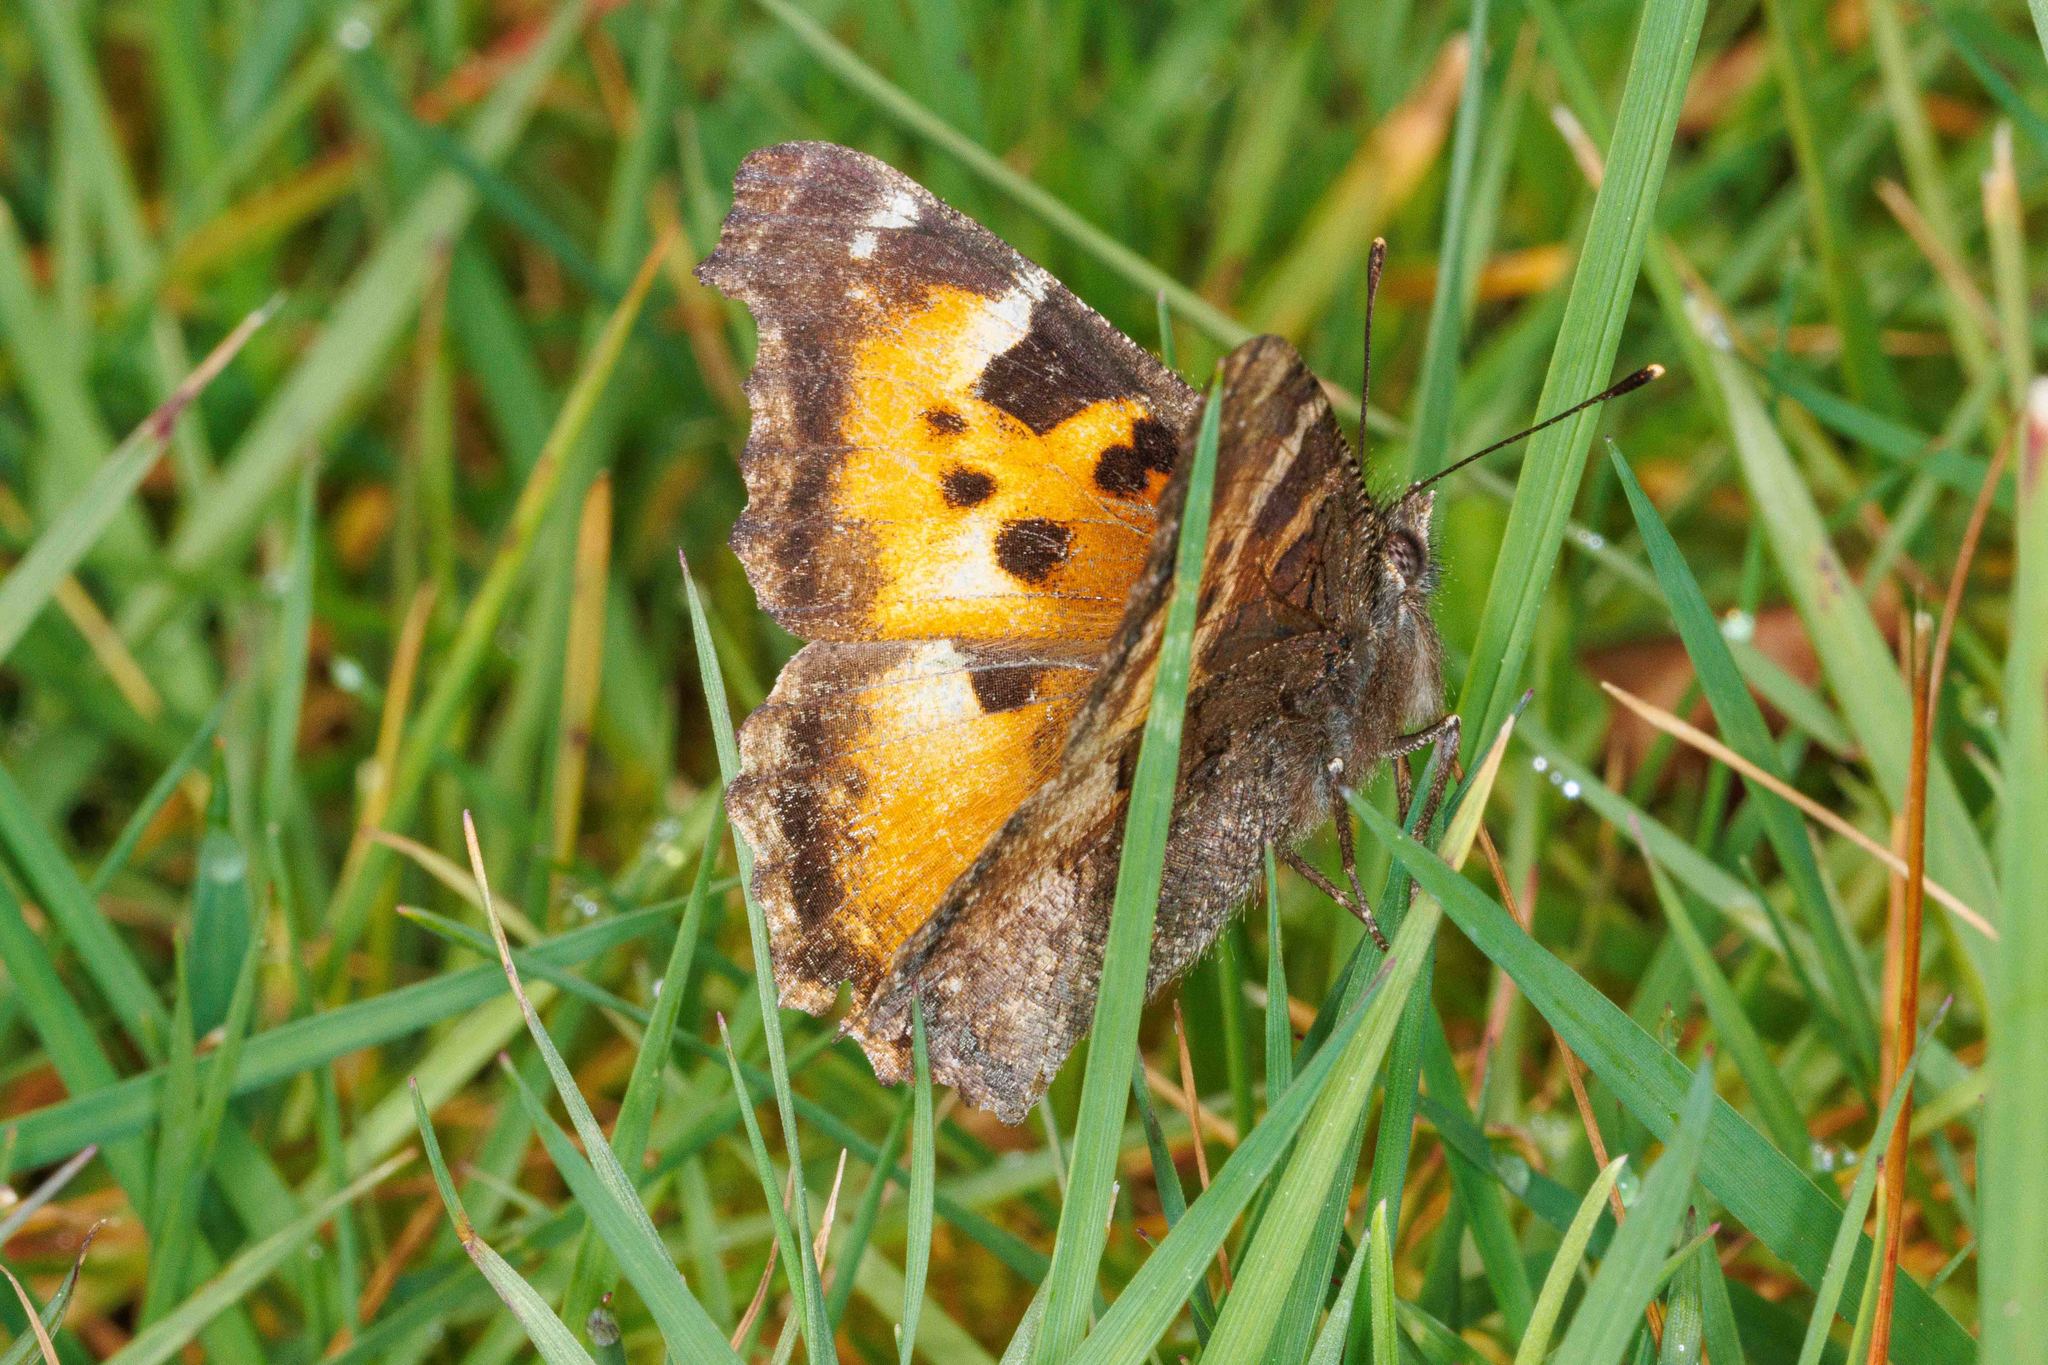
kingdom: Animalia
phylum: Arthropoda
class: Insecta
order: Lepidoptera
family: Nymphalidae
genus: Nymphalis
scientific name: Nymphalis californica
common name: California tortoiseshell
